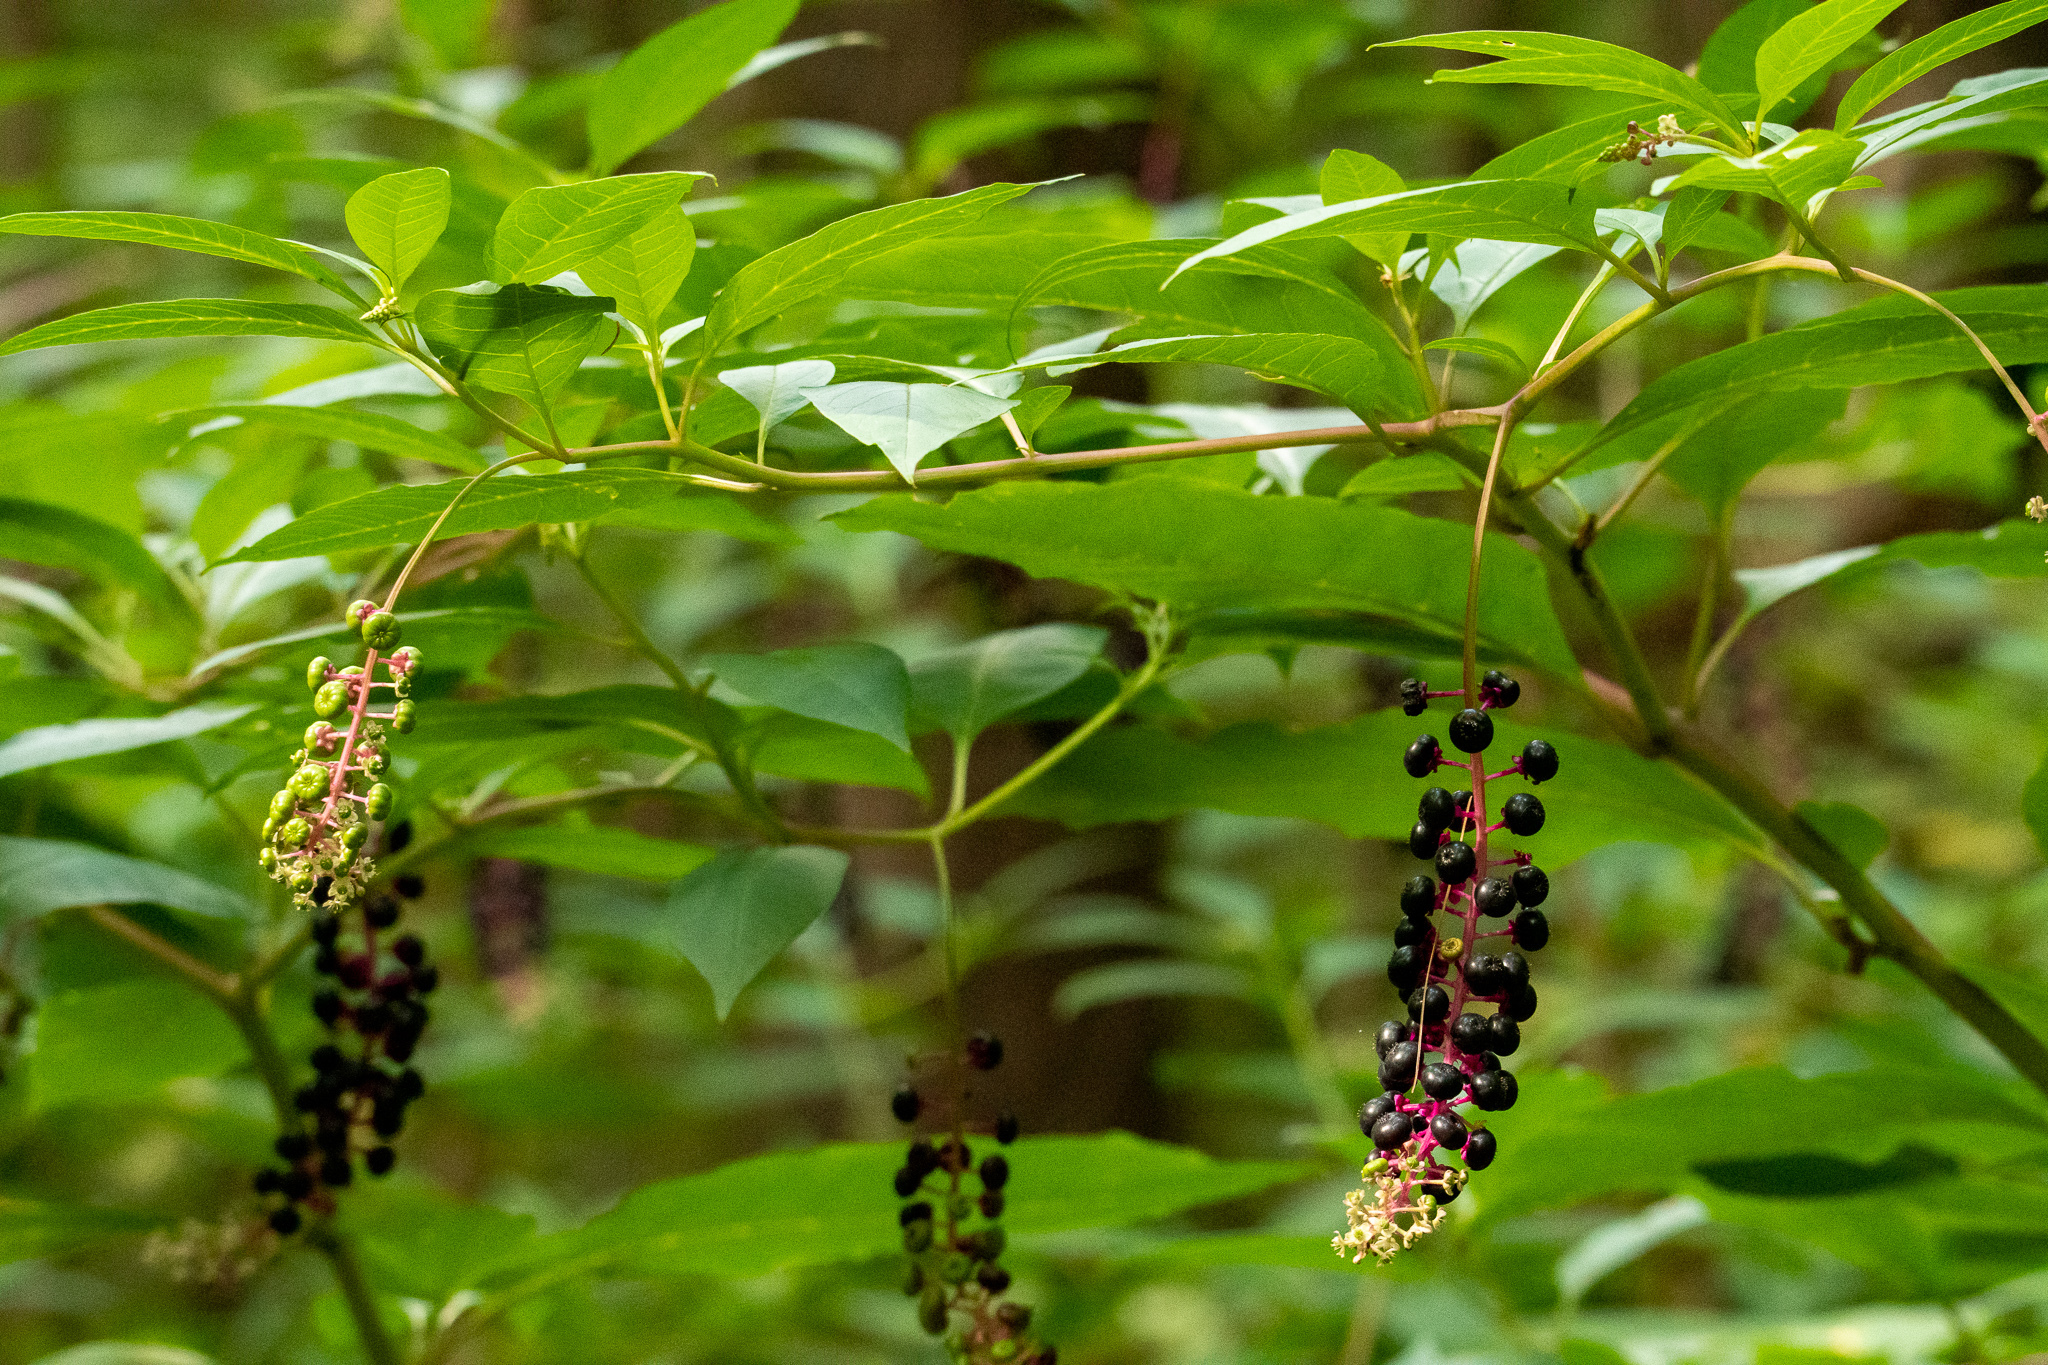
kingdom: Plantae
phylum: Tracheophyta
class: Magnoliopsida
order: Caryophyllales
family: Phytolaccaceae
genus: Phytolacca
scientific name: Phytolacca americana
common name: American pokeweed
